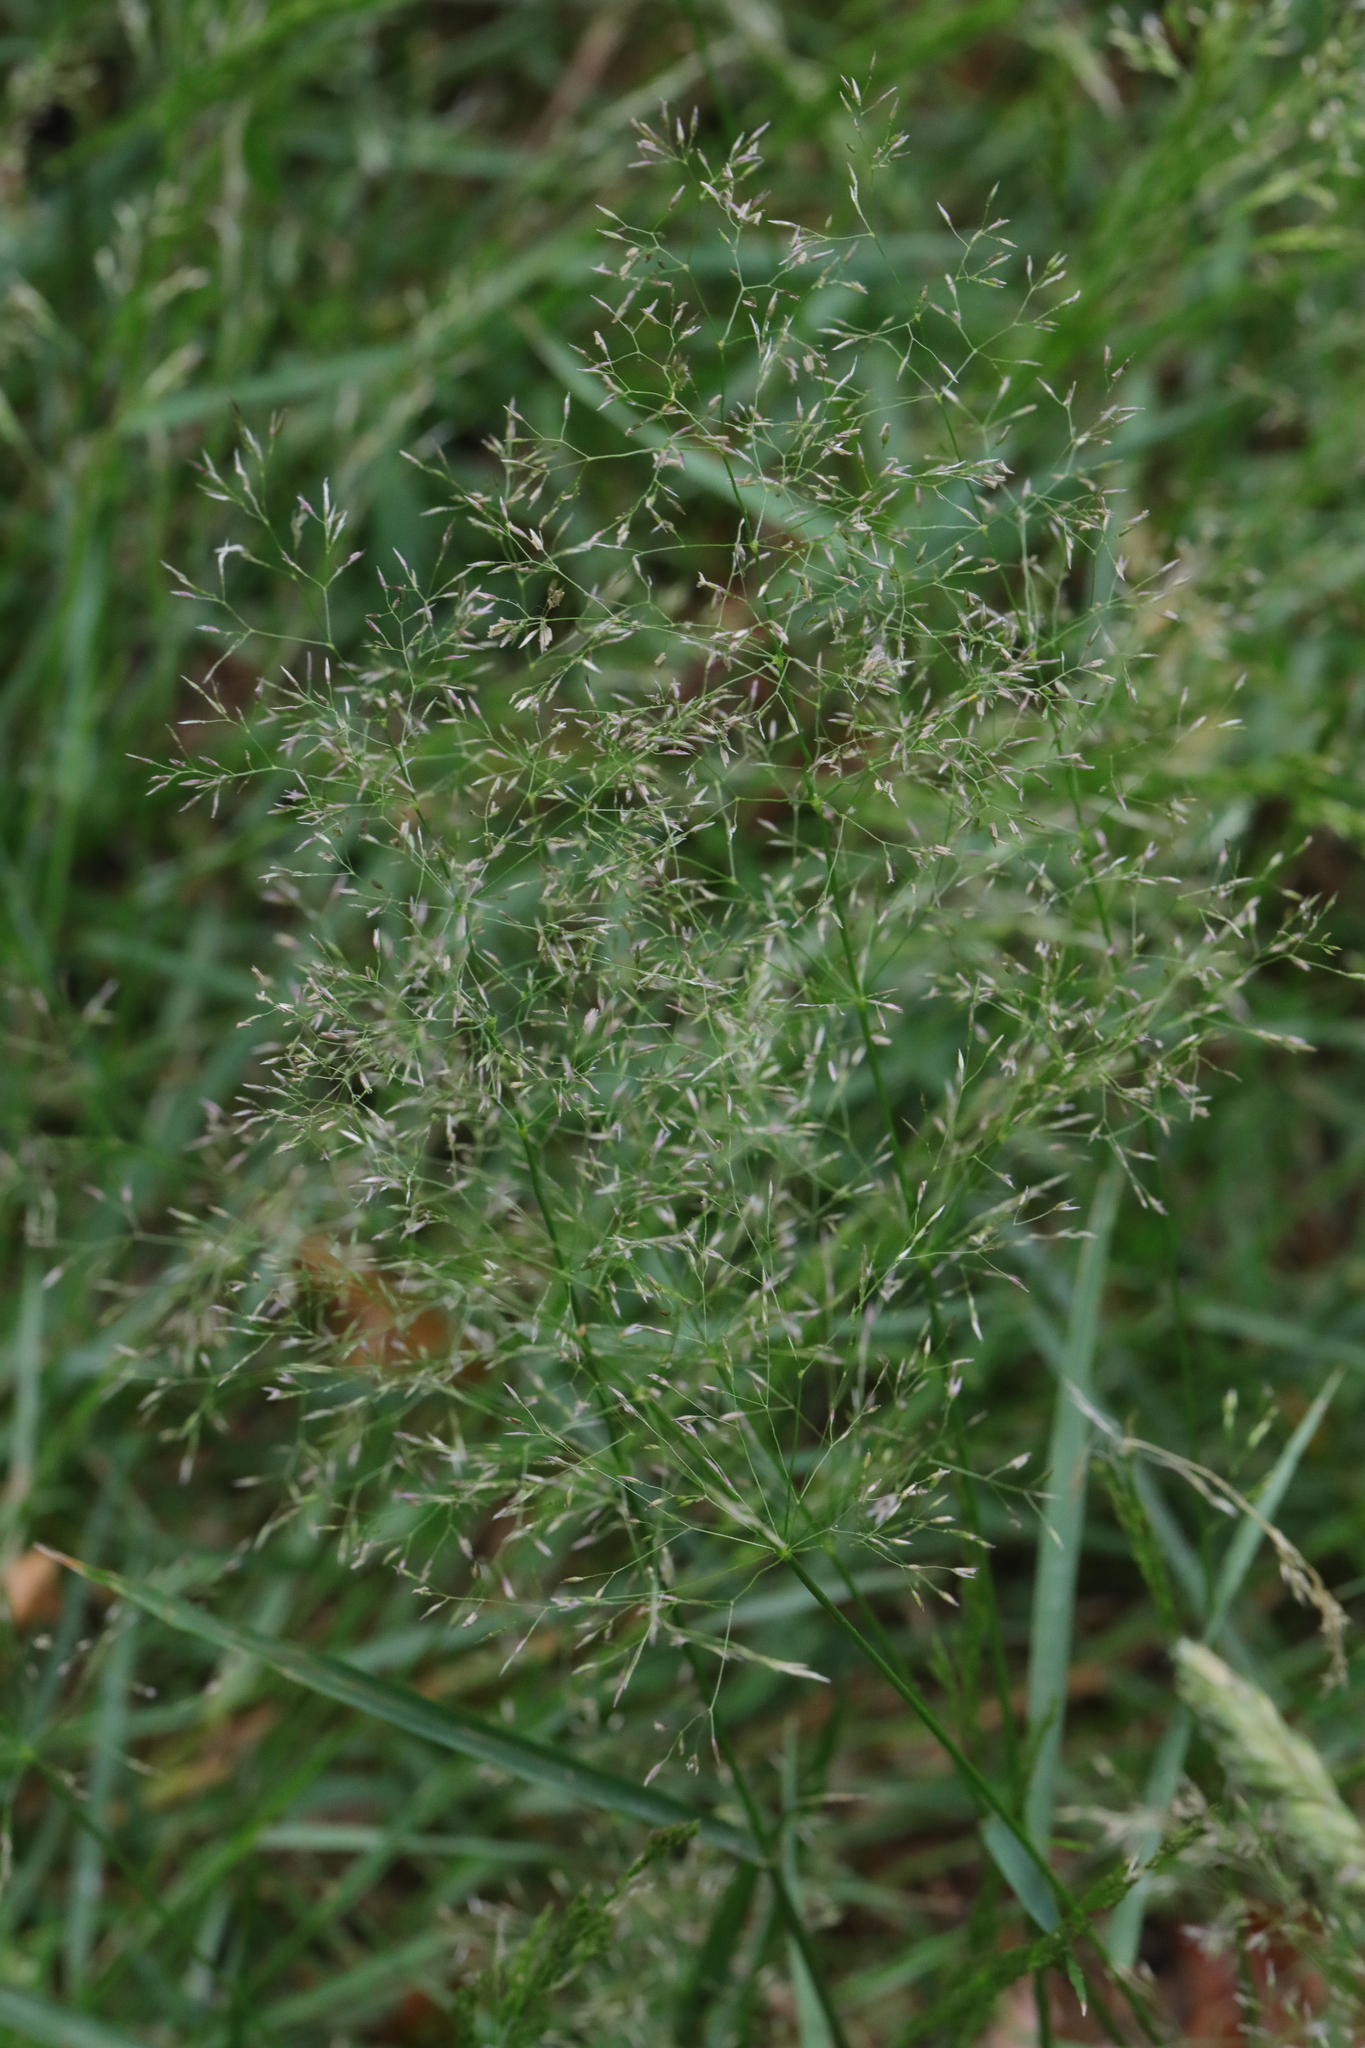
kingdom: Plantae
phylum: Tracheophyta
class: Liliopsida
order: Poales
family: Poaceae
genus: Agrostis
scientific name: Agrostis capillaris
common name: Colonial bentgrass
